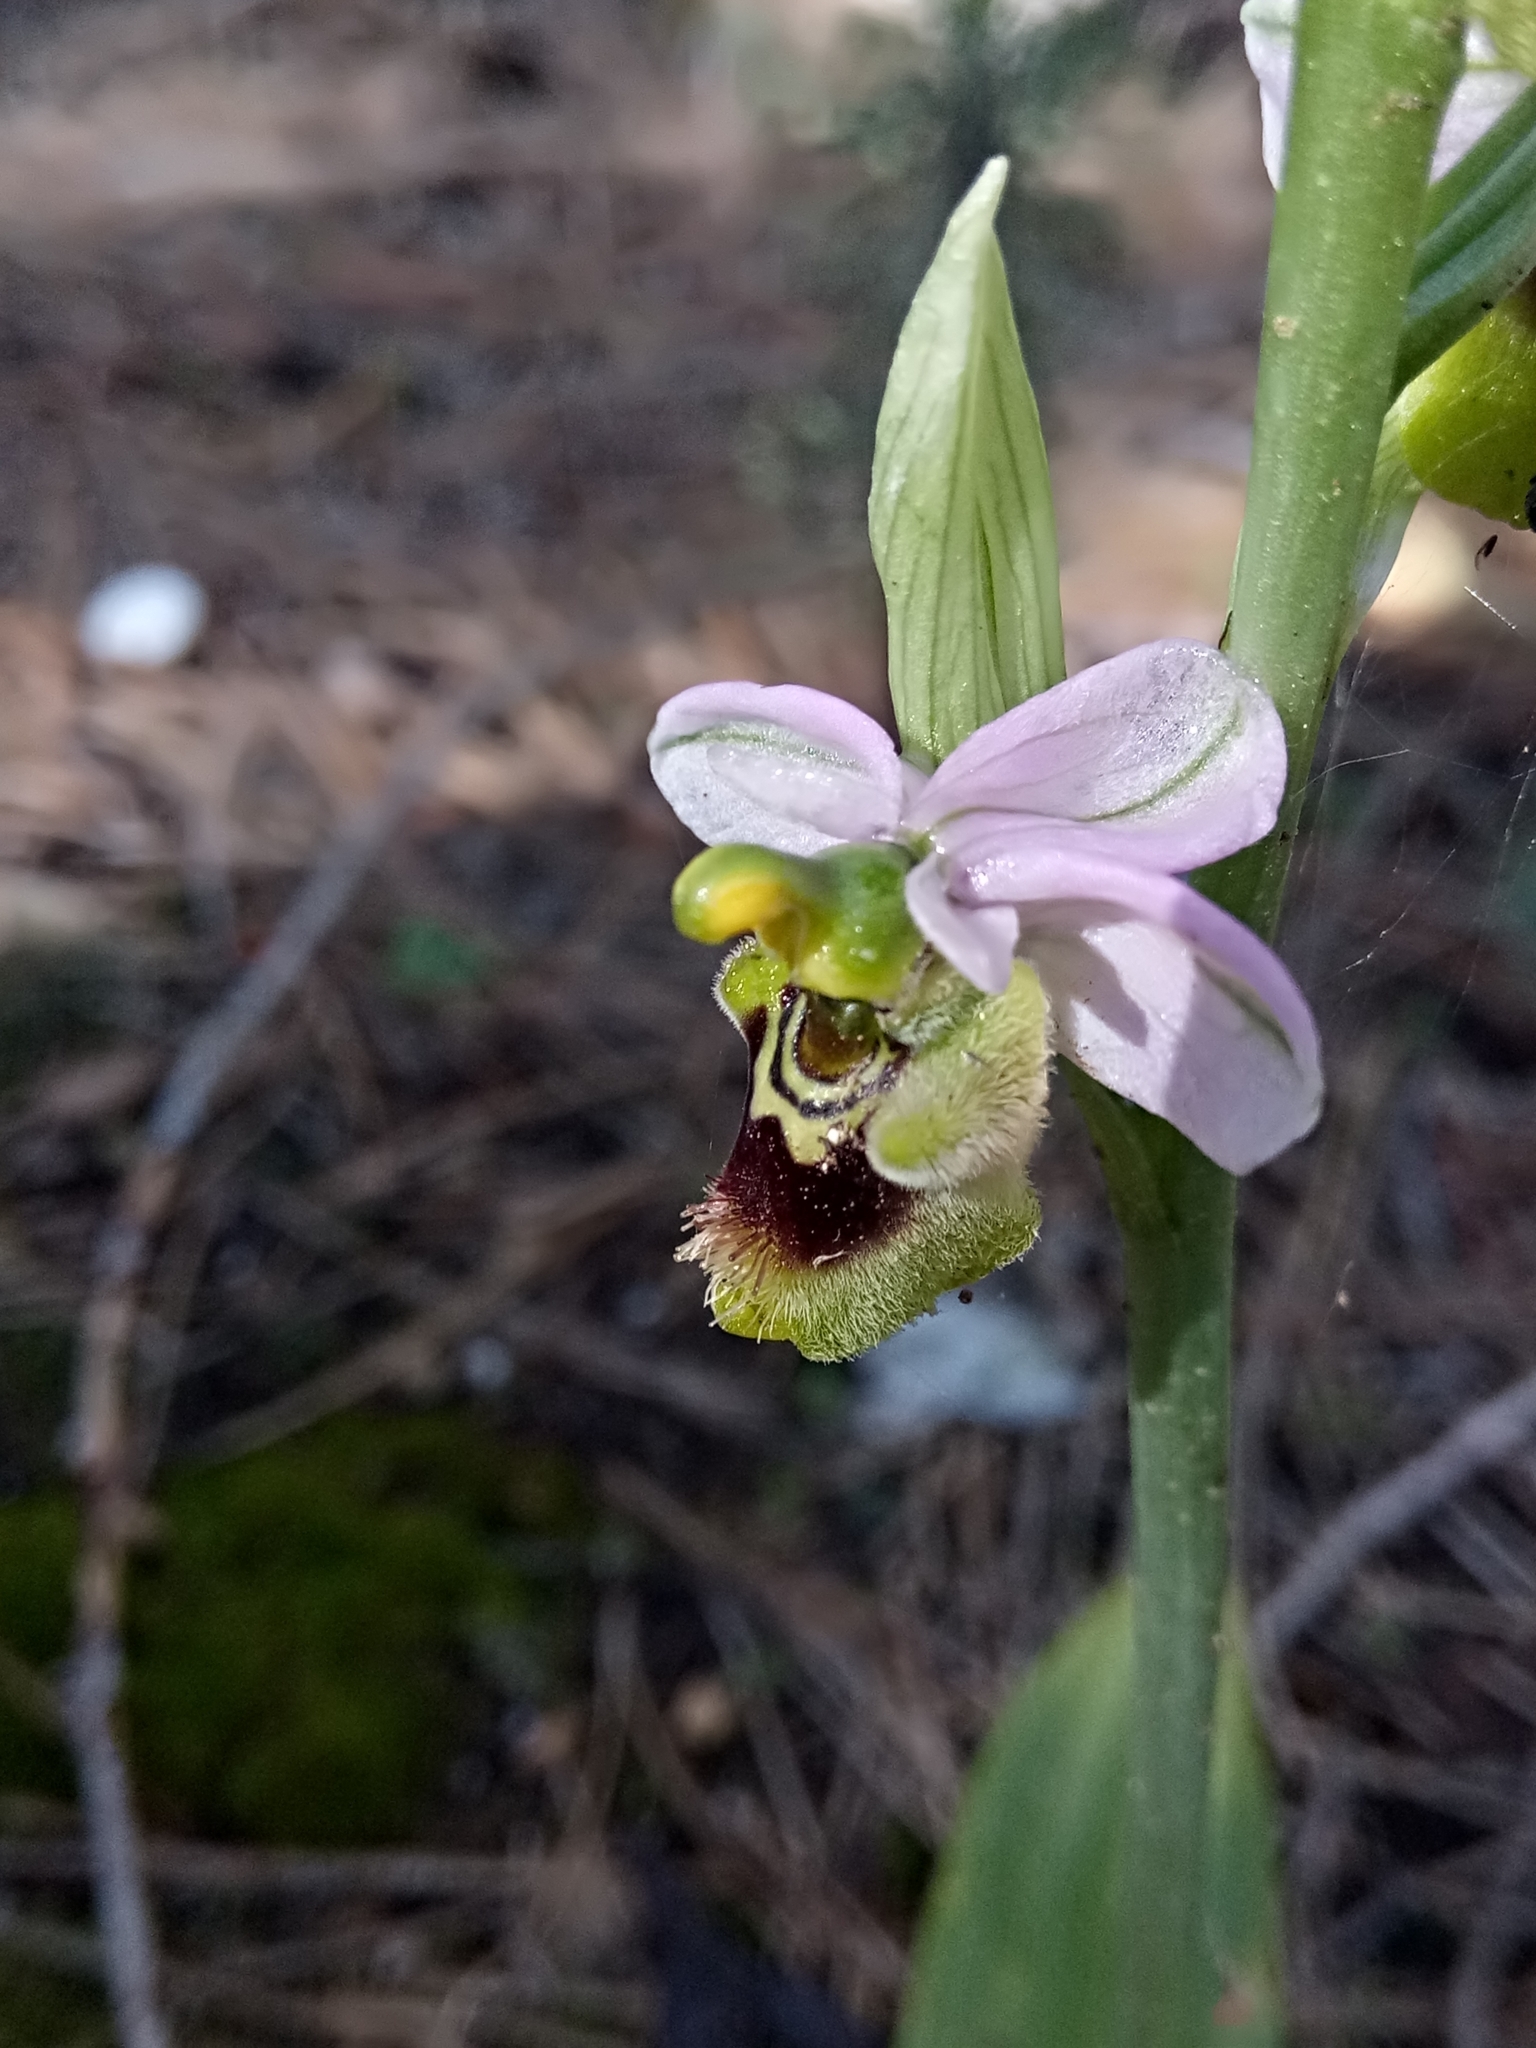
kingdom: Plantae
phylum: Tracheophyta
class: Liliopsida
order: Asparagales
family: Orchidaceae
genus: Ophrys
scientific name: Ophrys tenthredinifera
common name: Sawfly orchid
